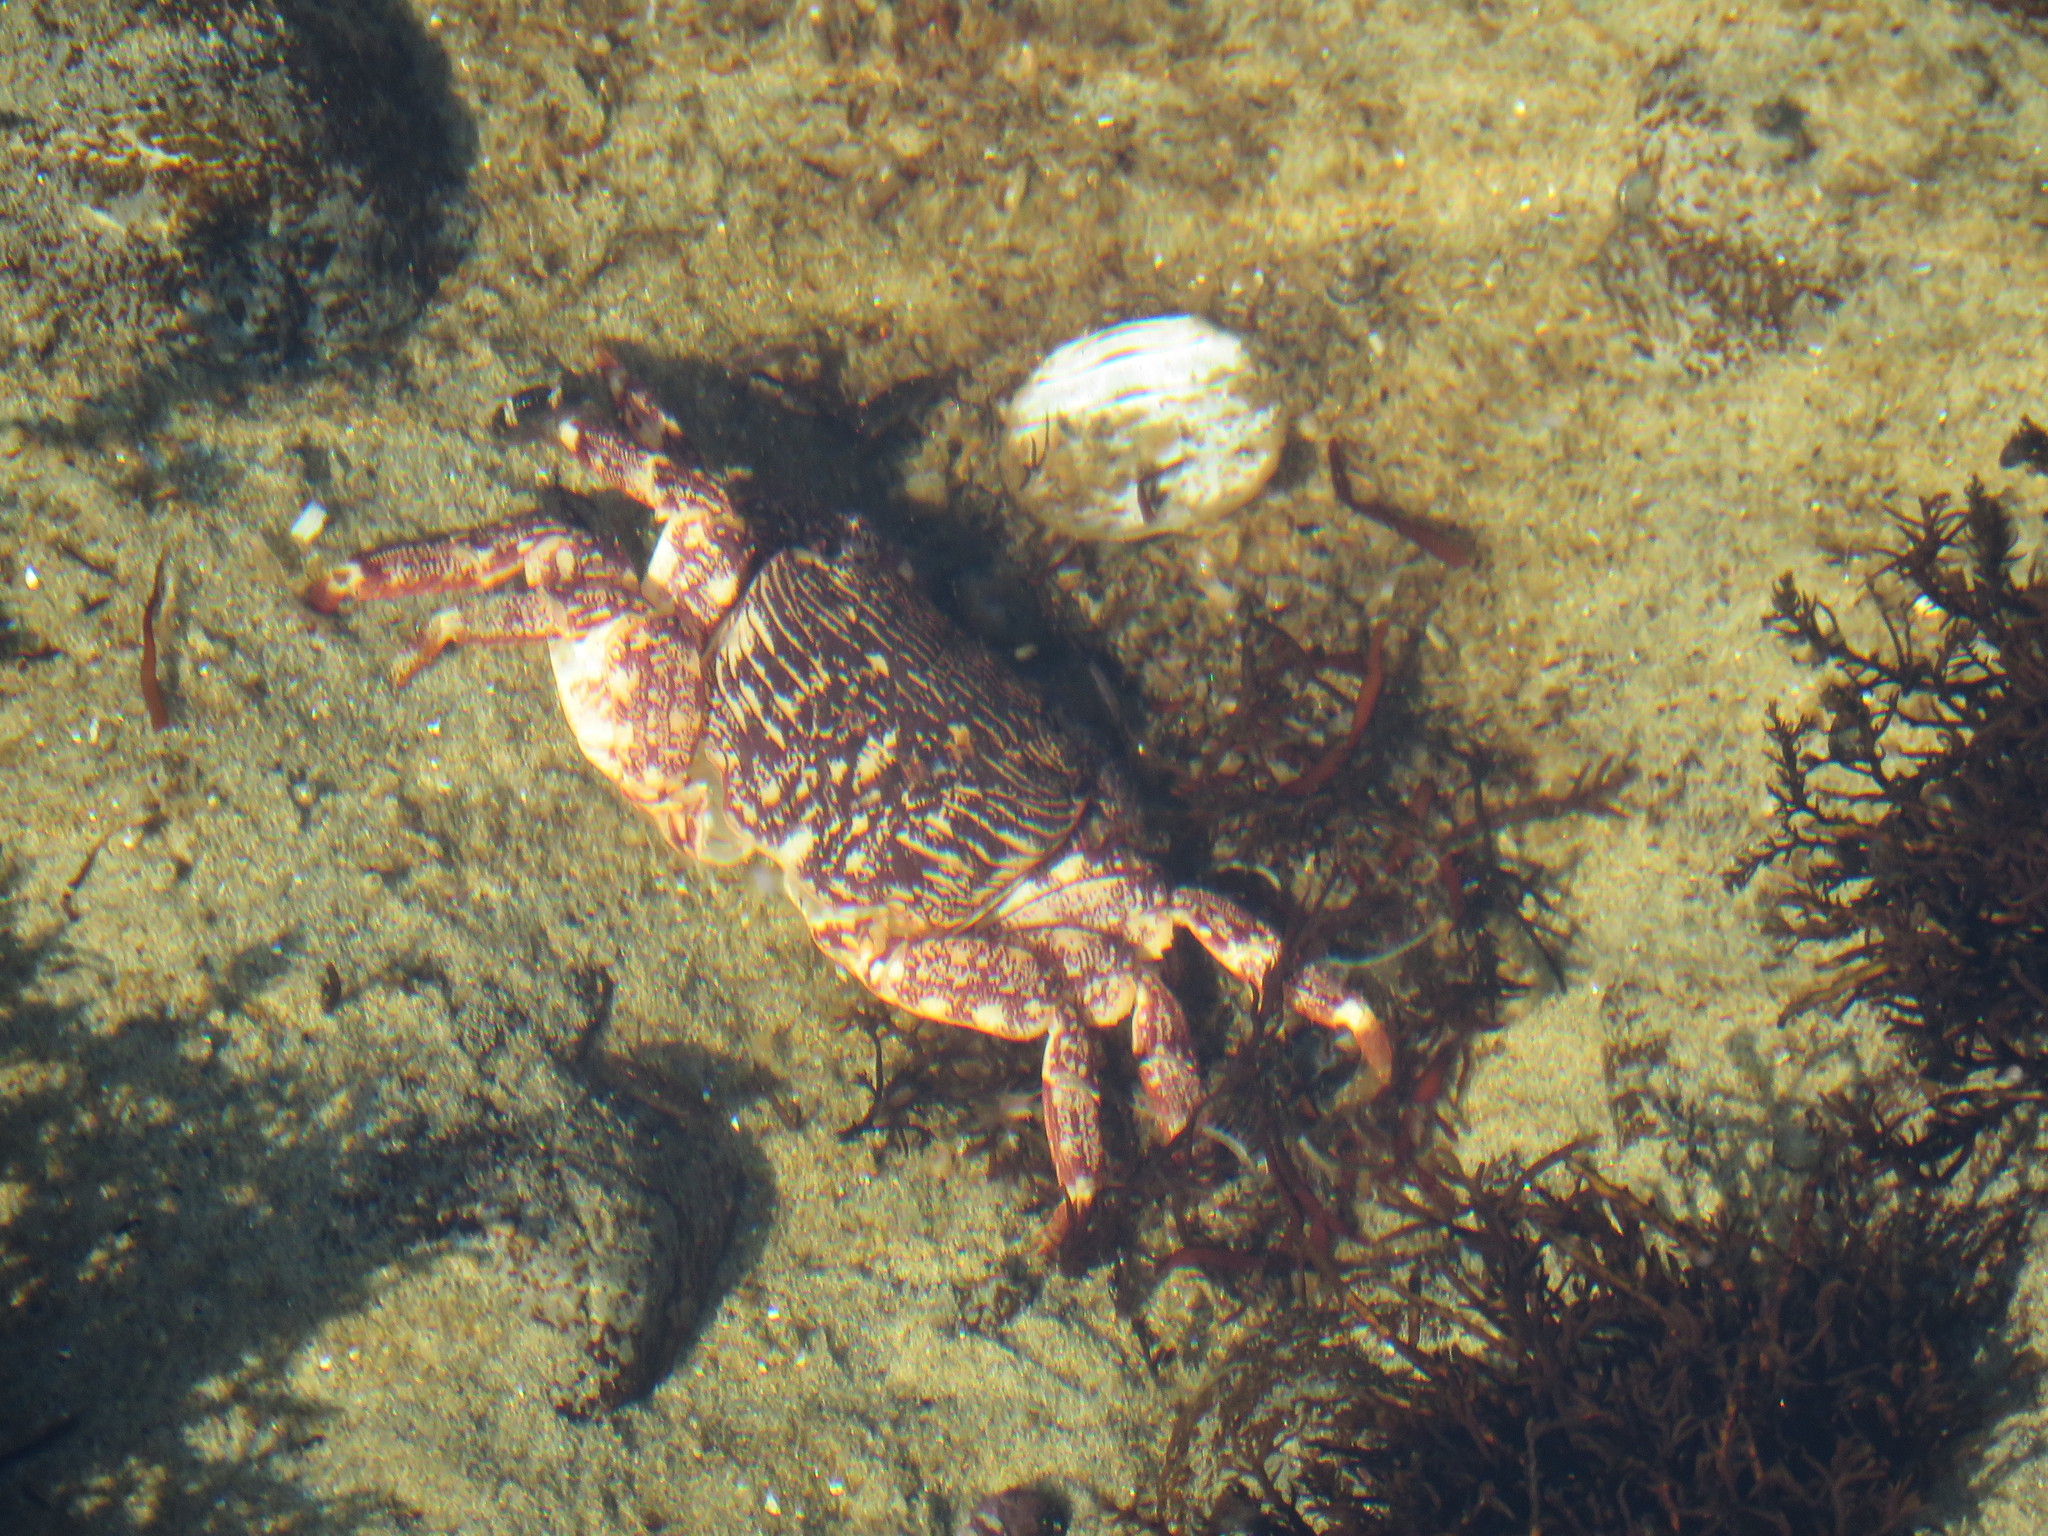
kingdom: Animalia
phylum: Arthropoda
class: Malacostraca
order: Decapoda
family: Grapsidae
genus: Pachygrapsus
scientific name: Pachygrapsus crassipes
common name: Striped shore crab
